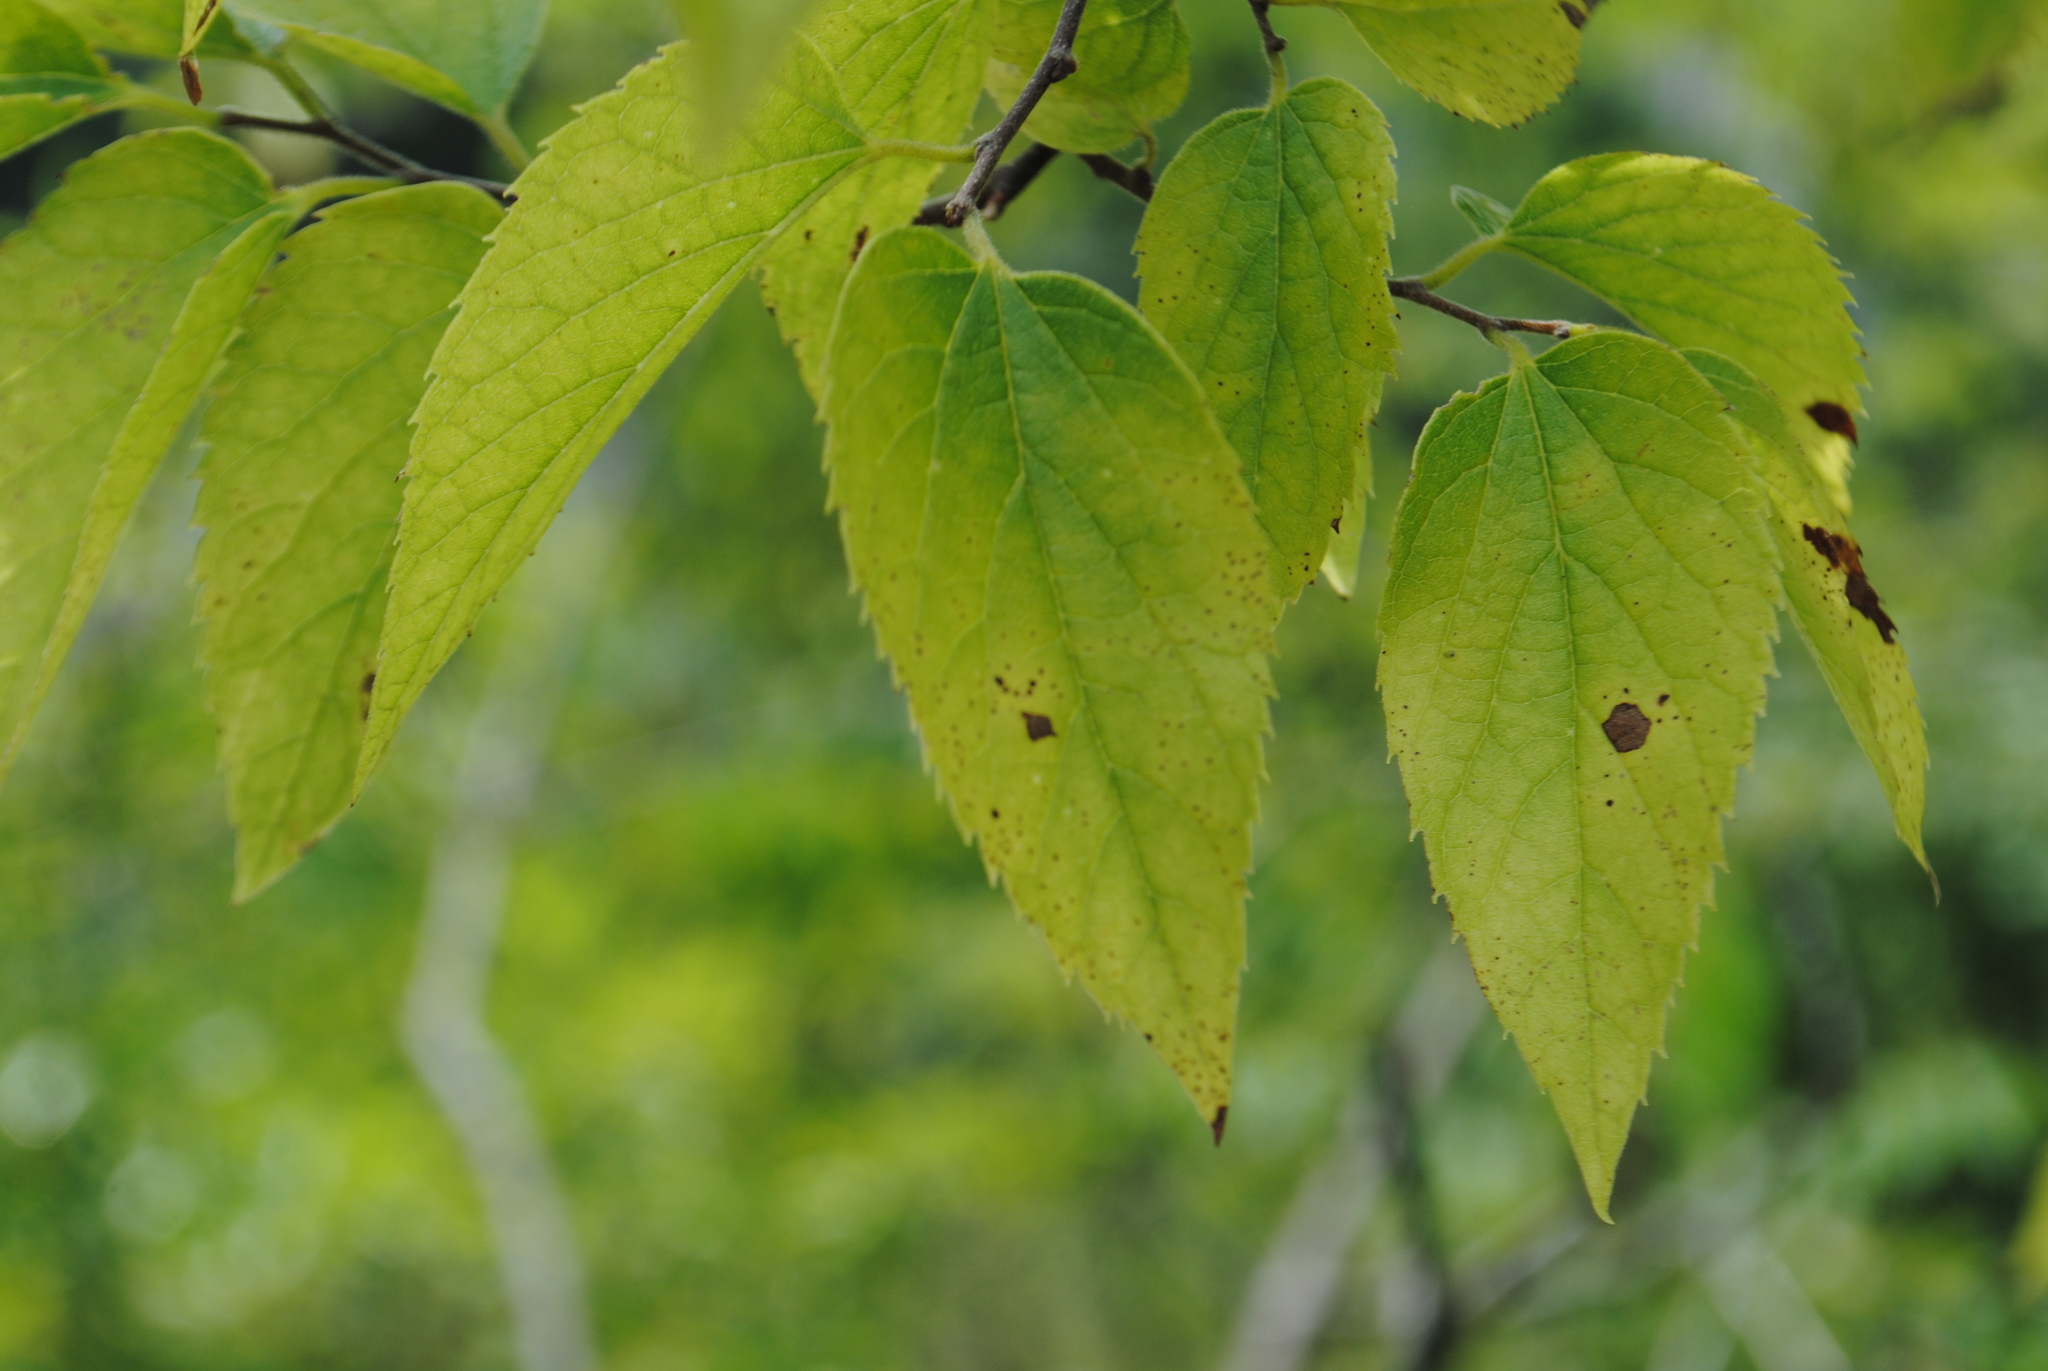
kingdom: Plantae
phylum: Tracheophyta
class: Magnoliopsida
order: Rosales
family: Cannabaceae
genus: Celtis
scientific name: Celtis occidentalis
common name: Common hackberry
